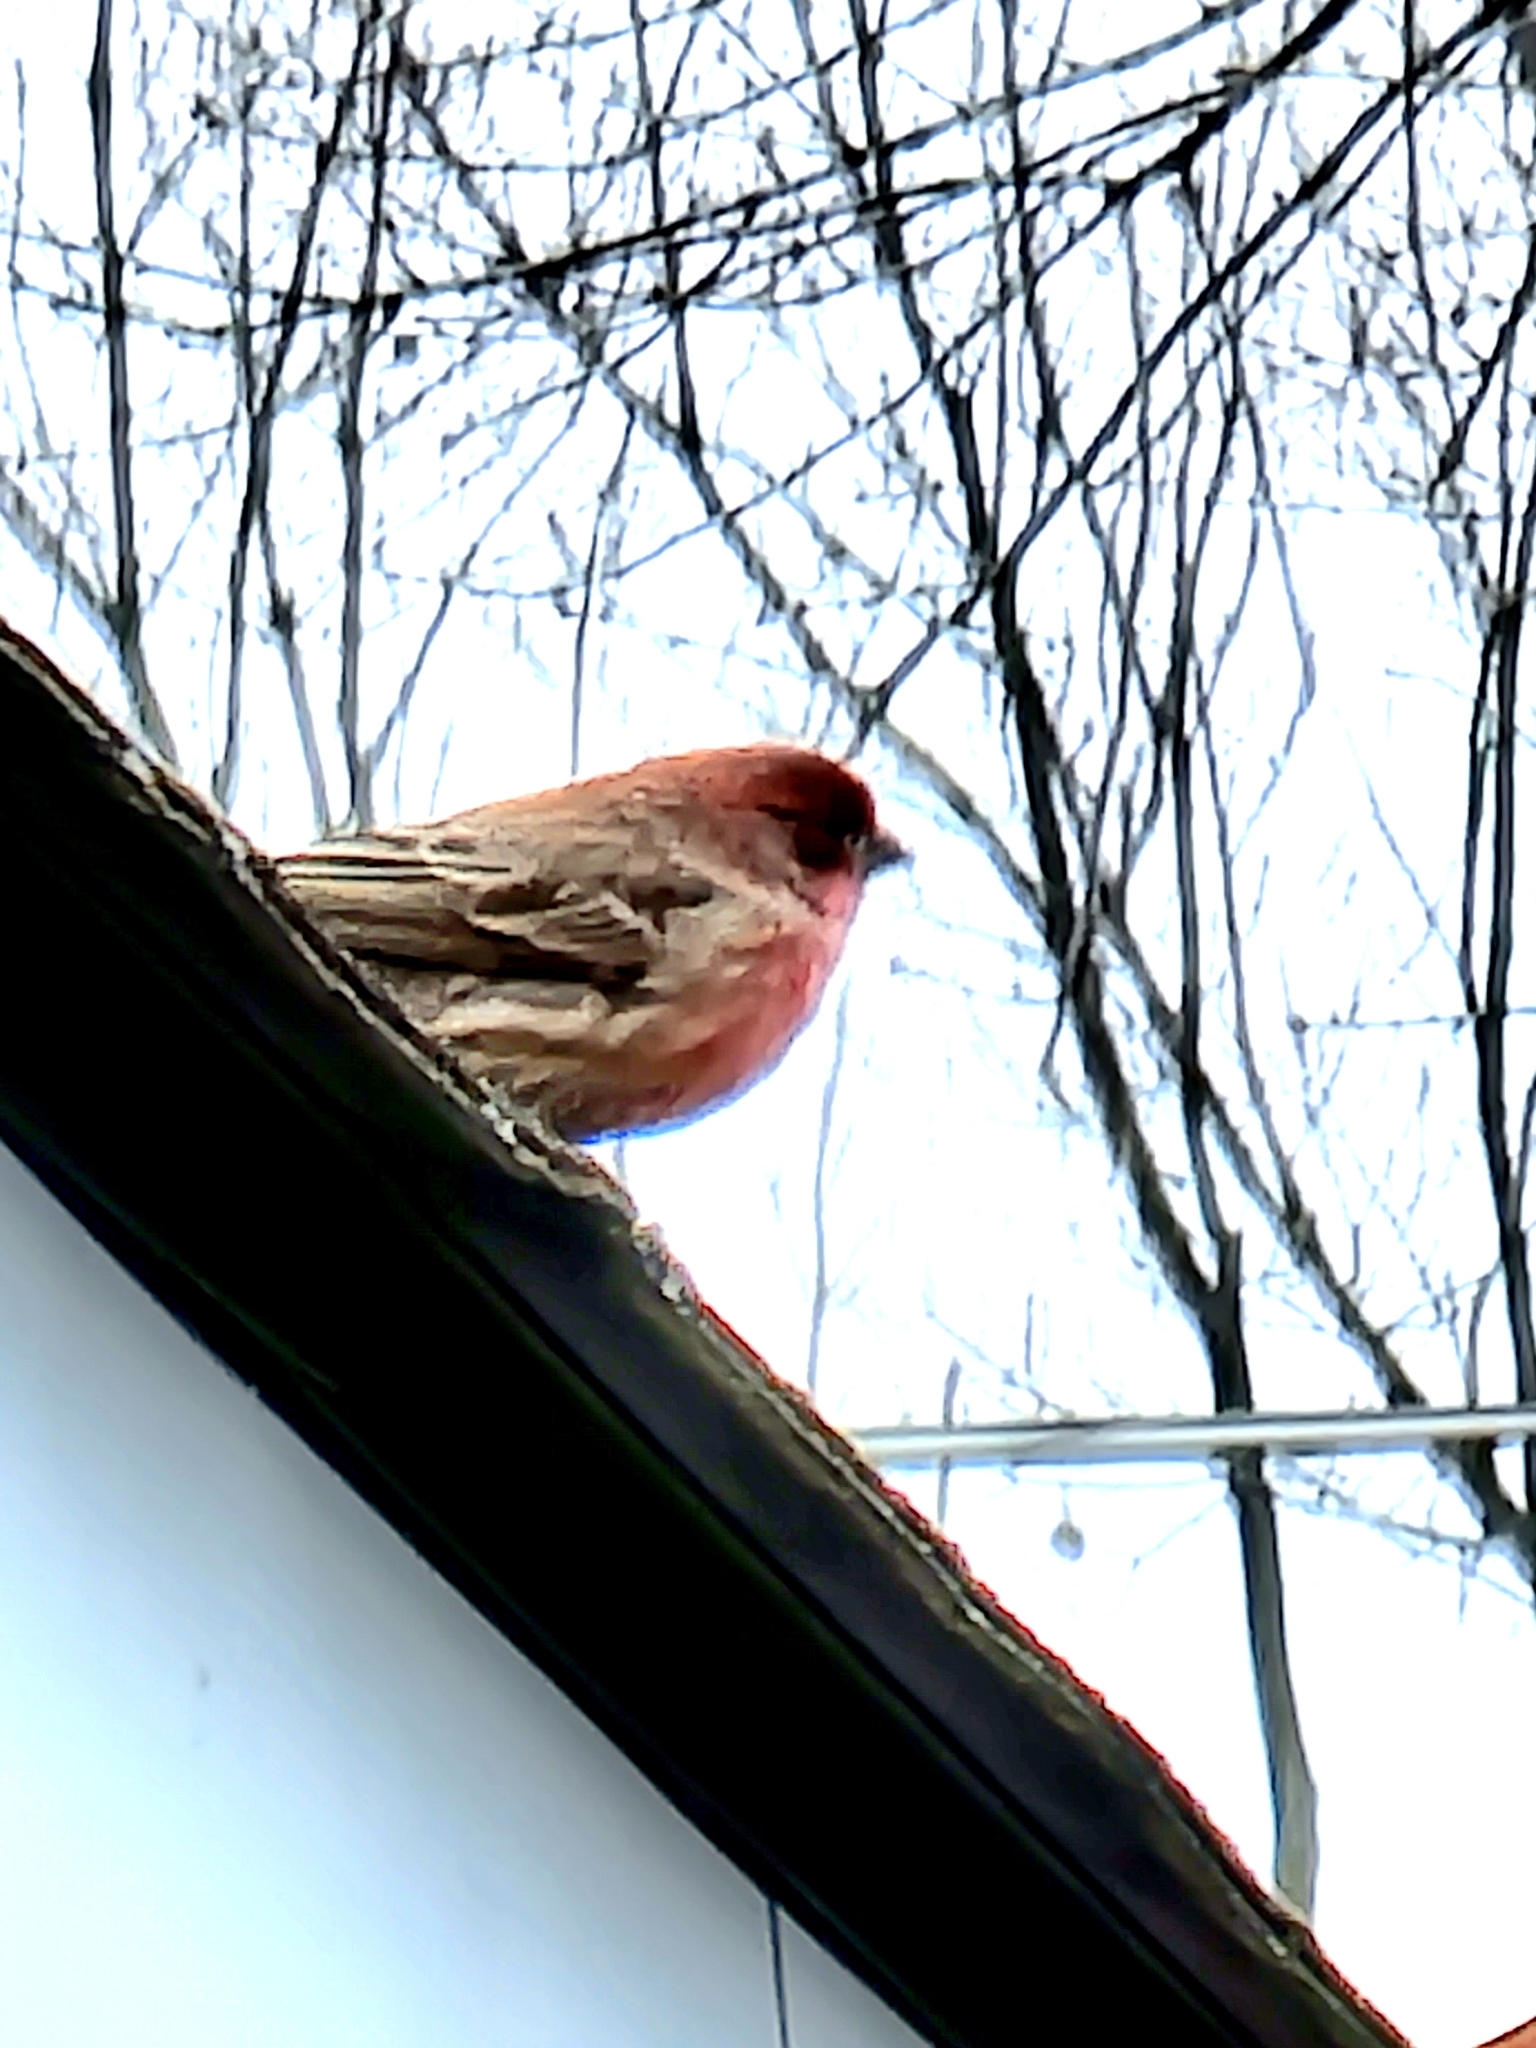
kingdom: Animalia
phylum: Chordata
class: Aves
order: Passeriformes
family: Fringillidae
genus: Haemorhous
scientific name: Haemorhous mexicanus
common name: House finch
